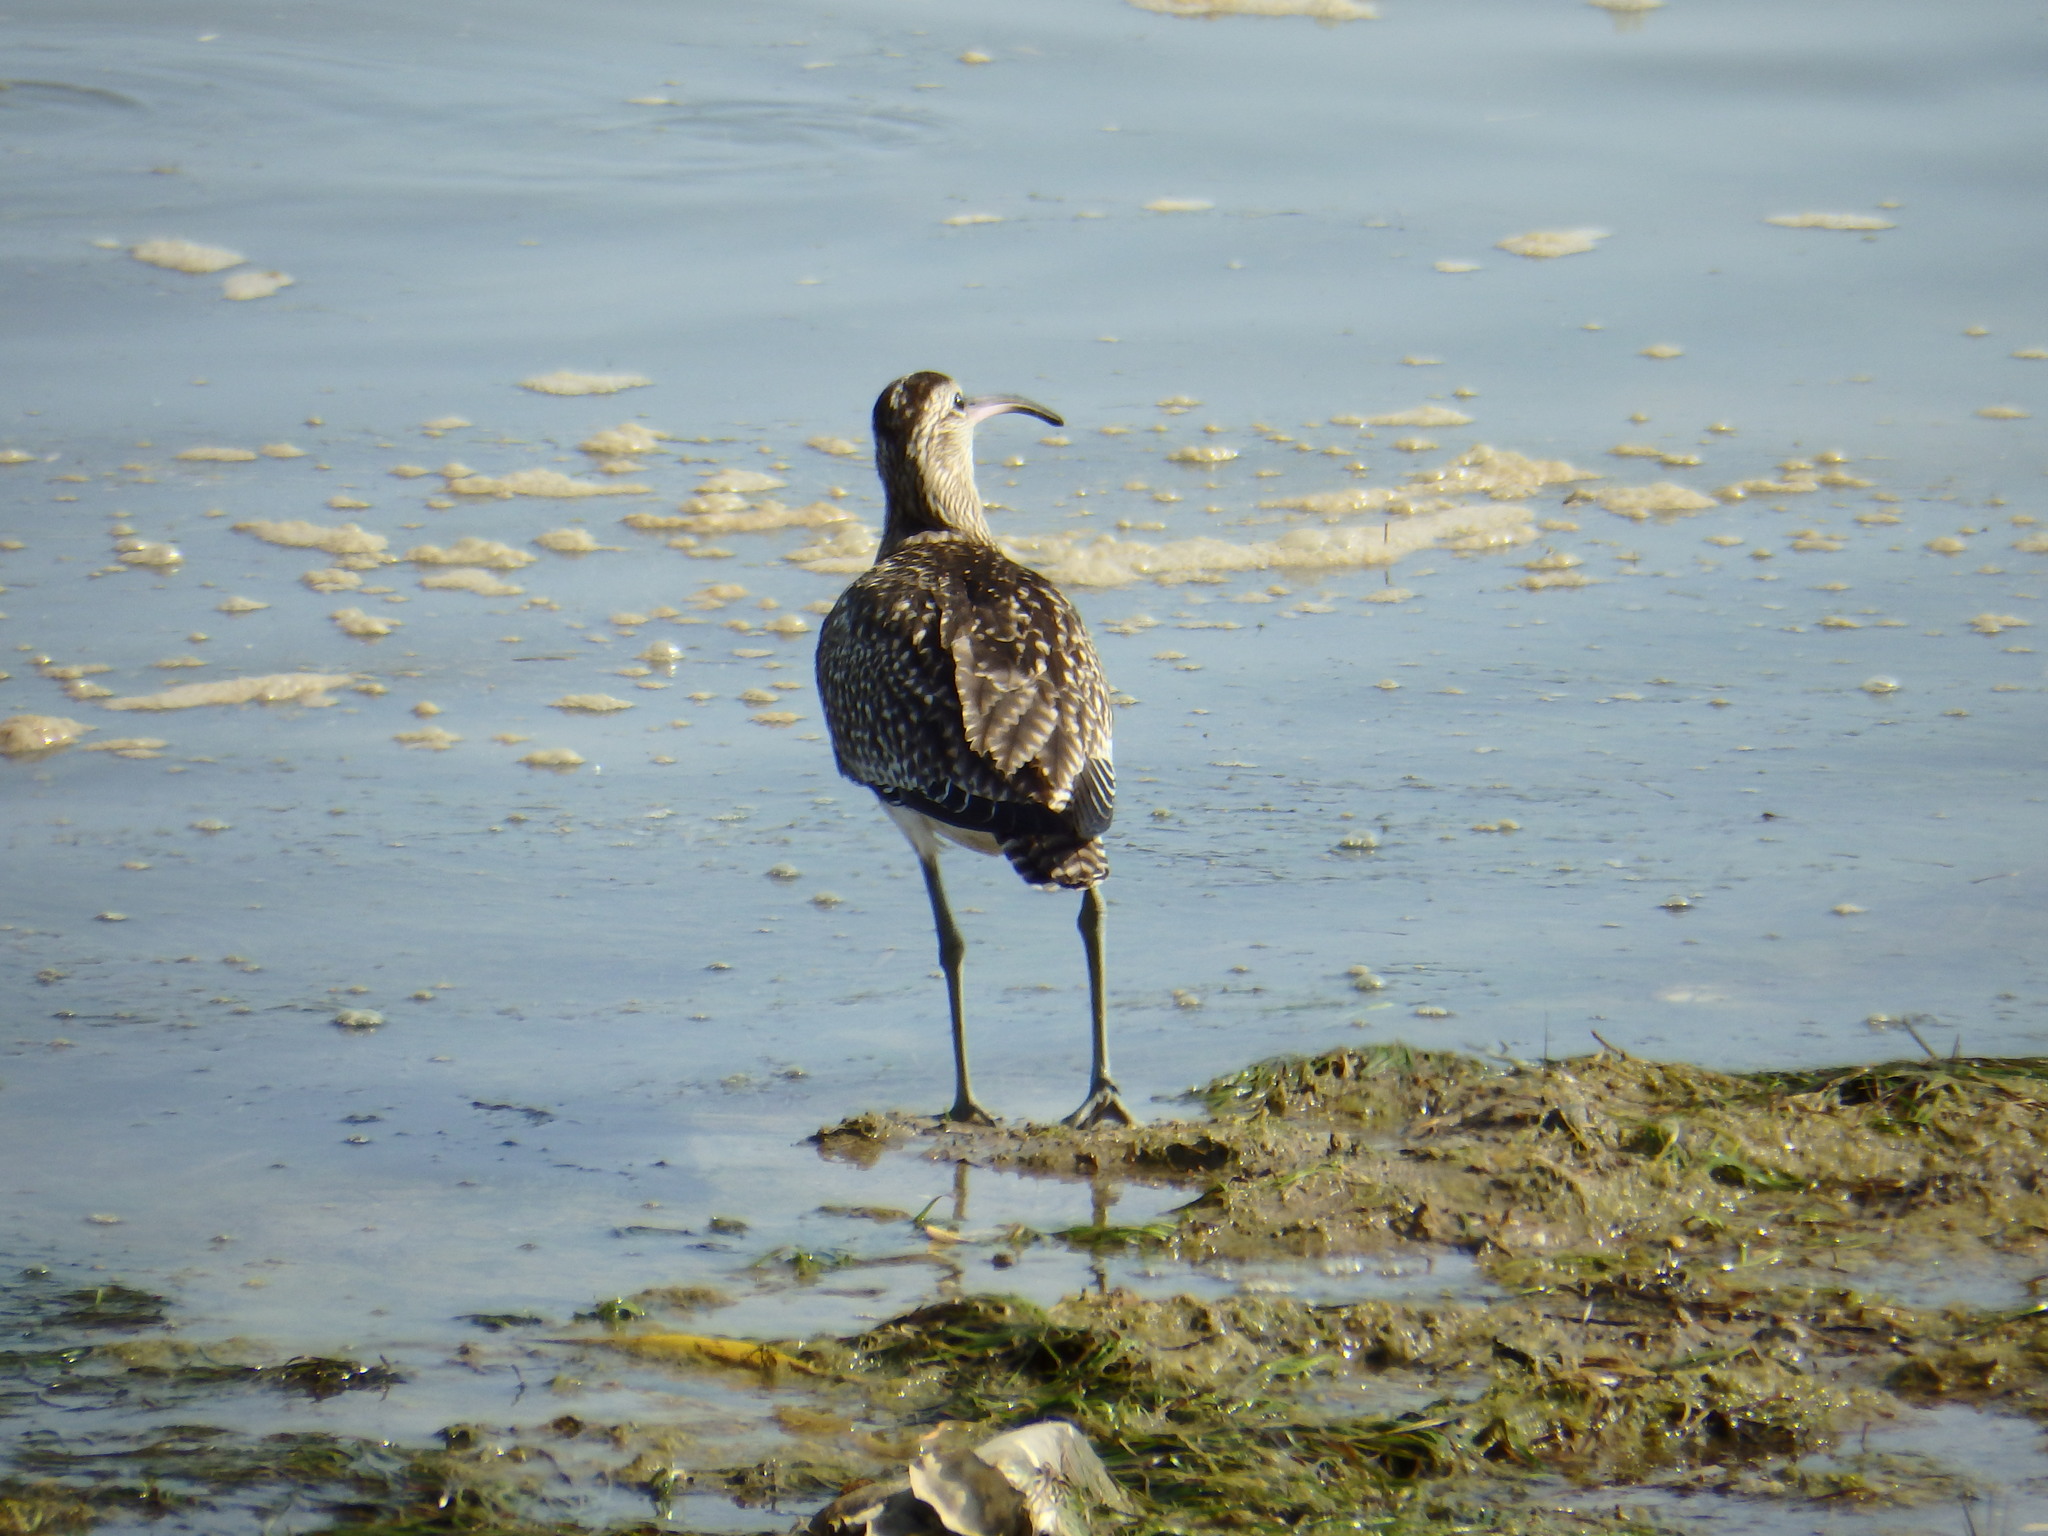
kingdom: Animalia
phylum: Chordata
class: Aves
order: Charadriiformes
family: Scolopacidae
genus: Numenius
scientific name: Numenius phaeopus
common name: Whimbrel
